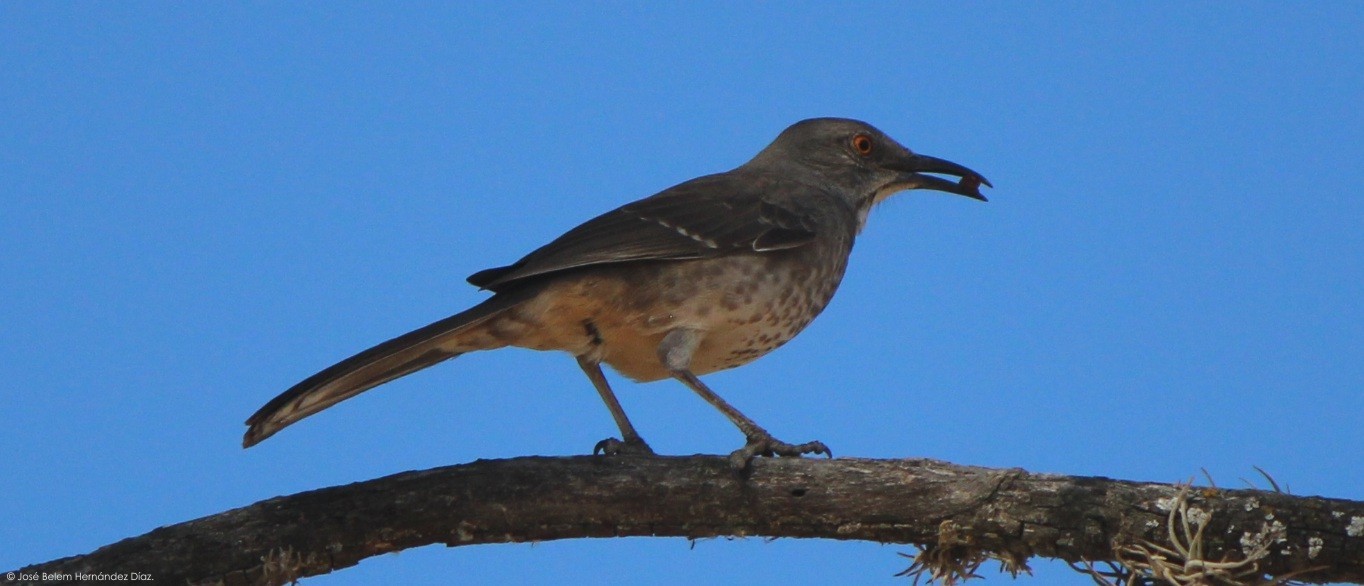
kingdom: Animalia
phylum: Chordata
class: Aves
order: Passeriformes
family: Mimidae
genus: Toxostoma
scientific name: Toxostoma curvirostre
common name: Curve-billed thrasher
